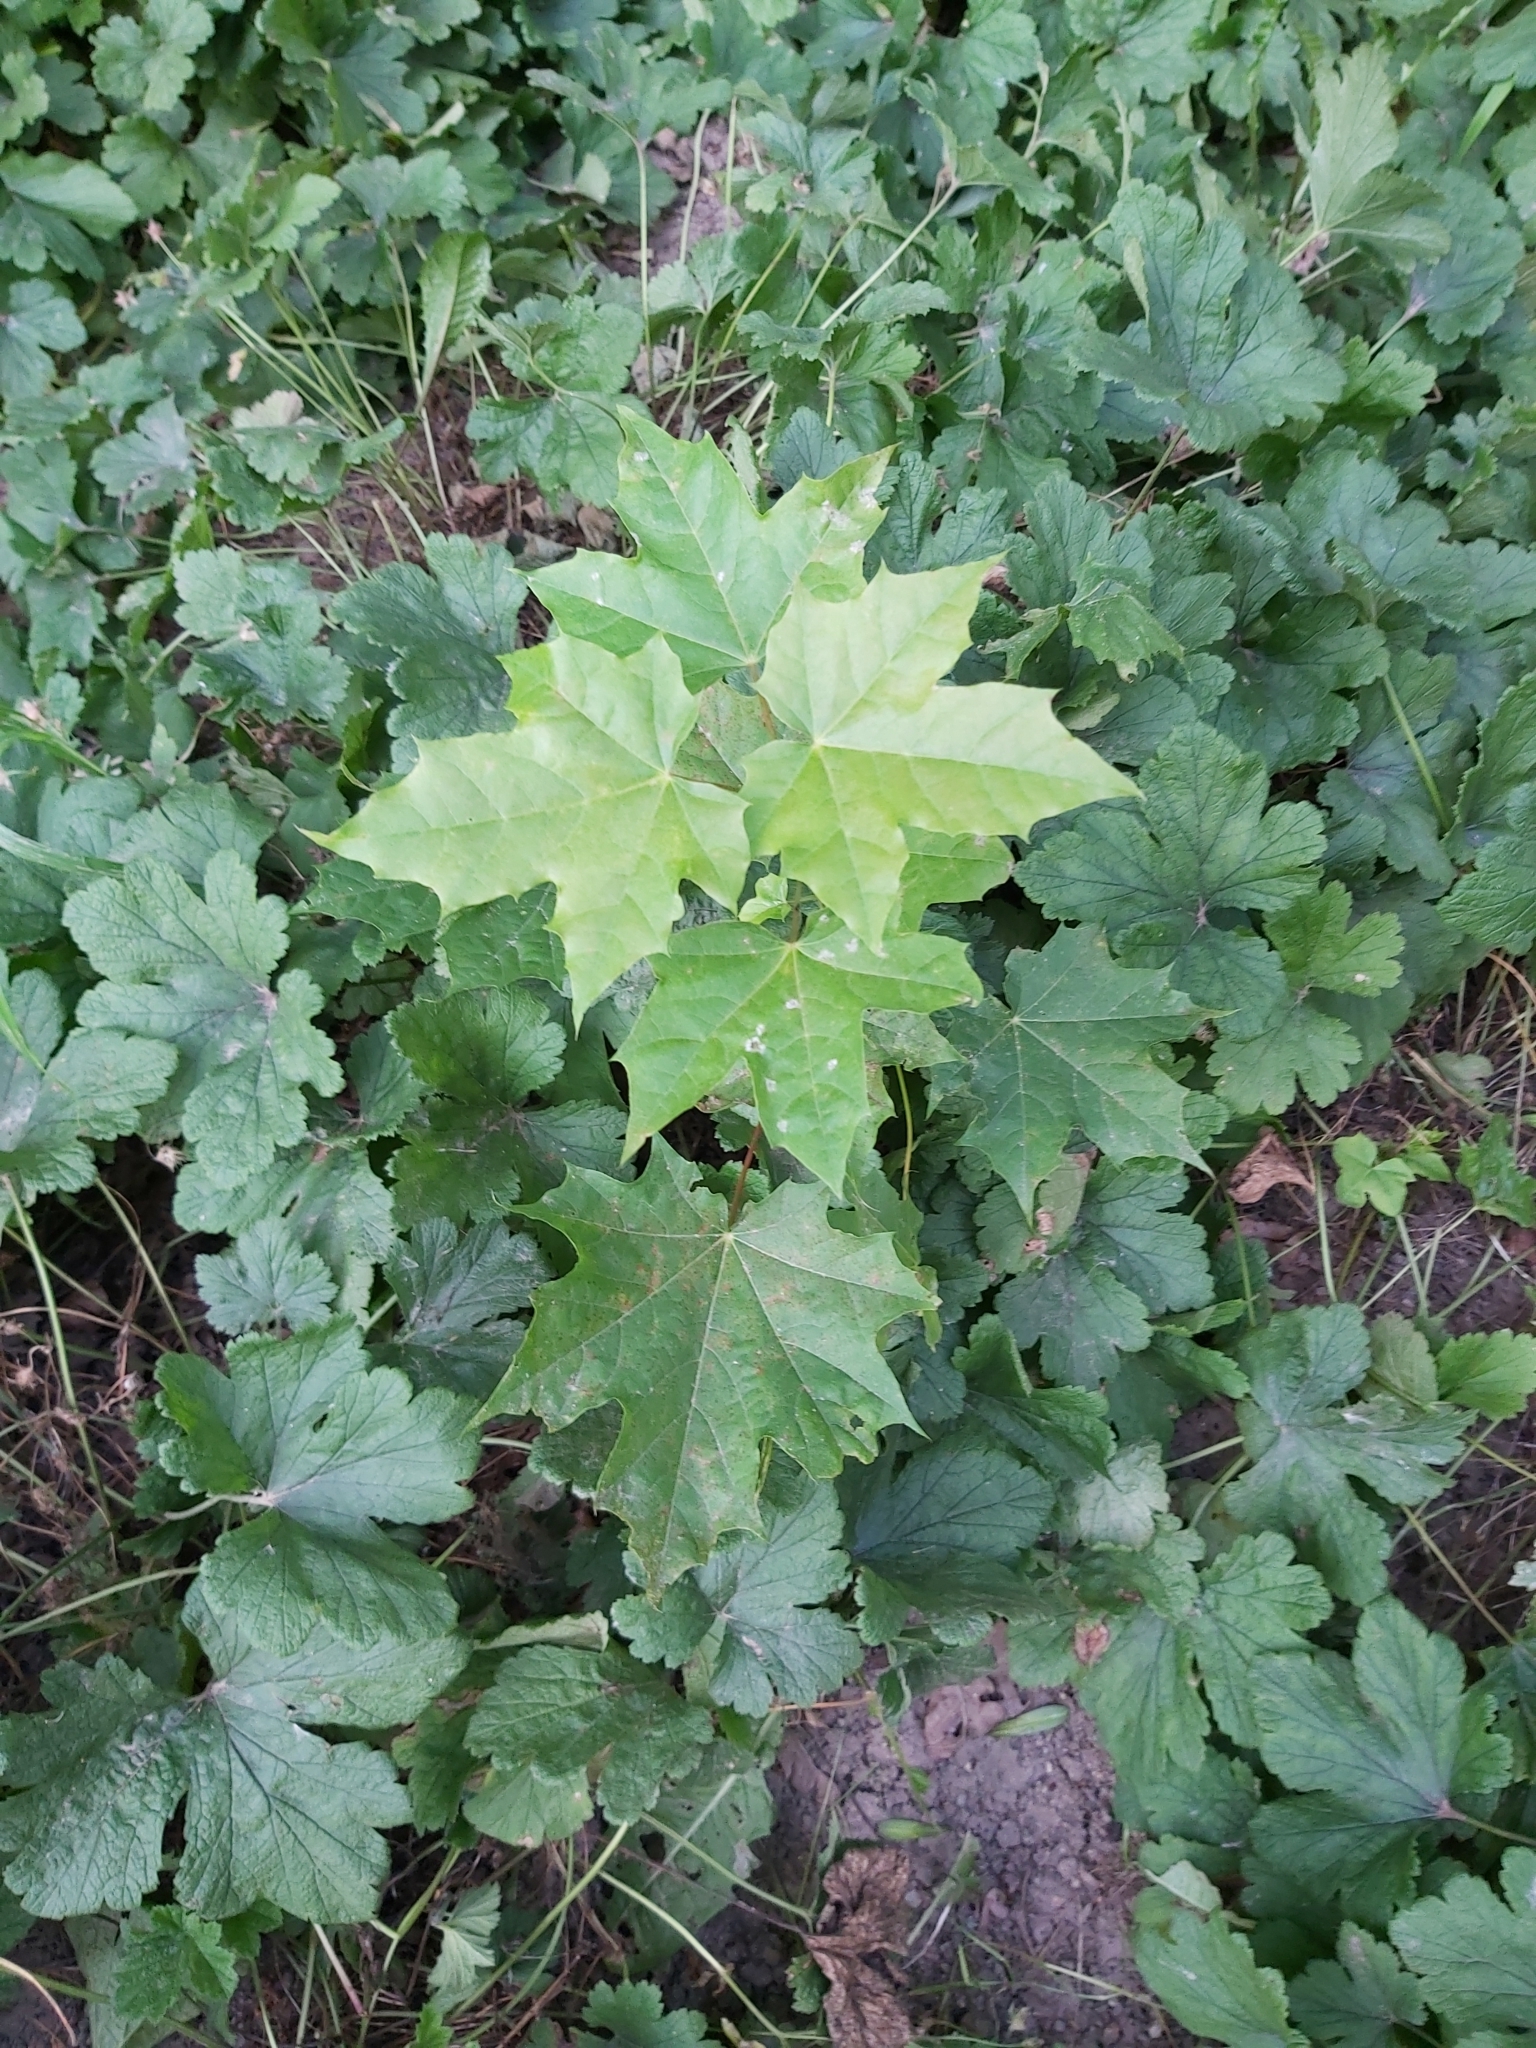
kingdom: Plantae
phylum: Tracheophyta
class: Magnoliopsida
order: Sapindales
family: Sapindaceae
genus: Acer
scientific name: Acer platanoides
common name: Norway maple
